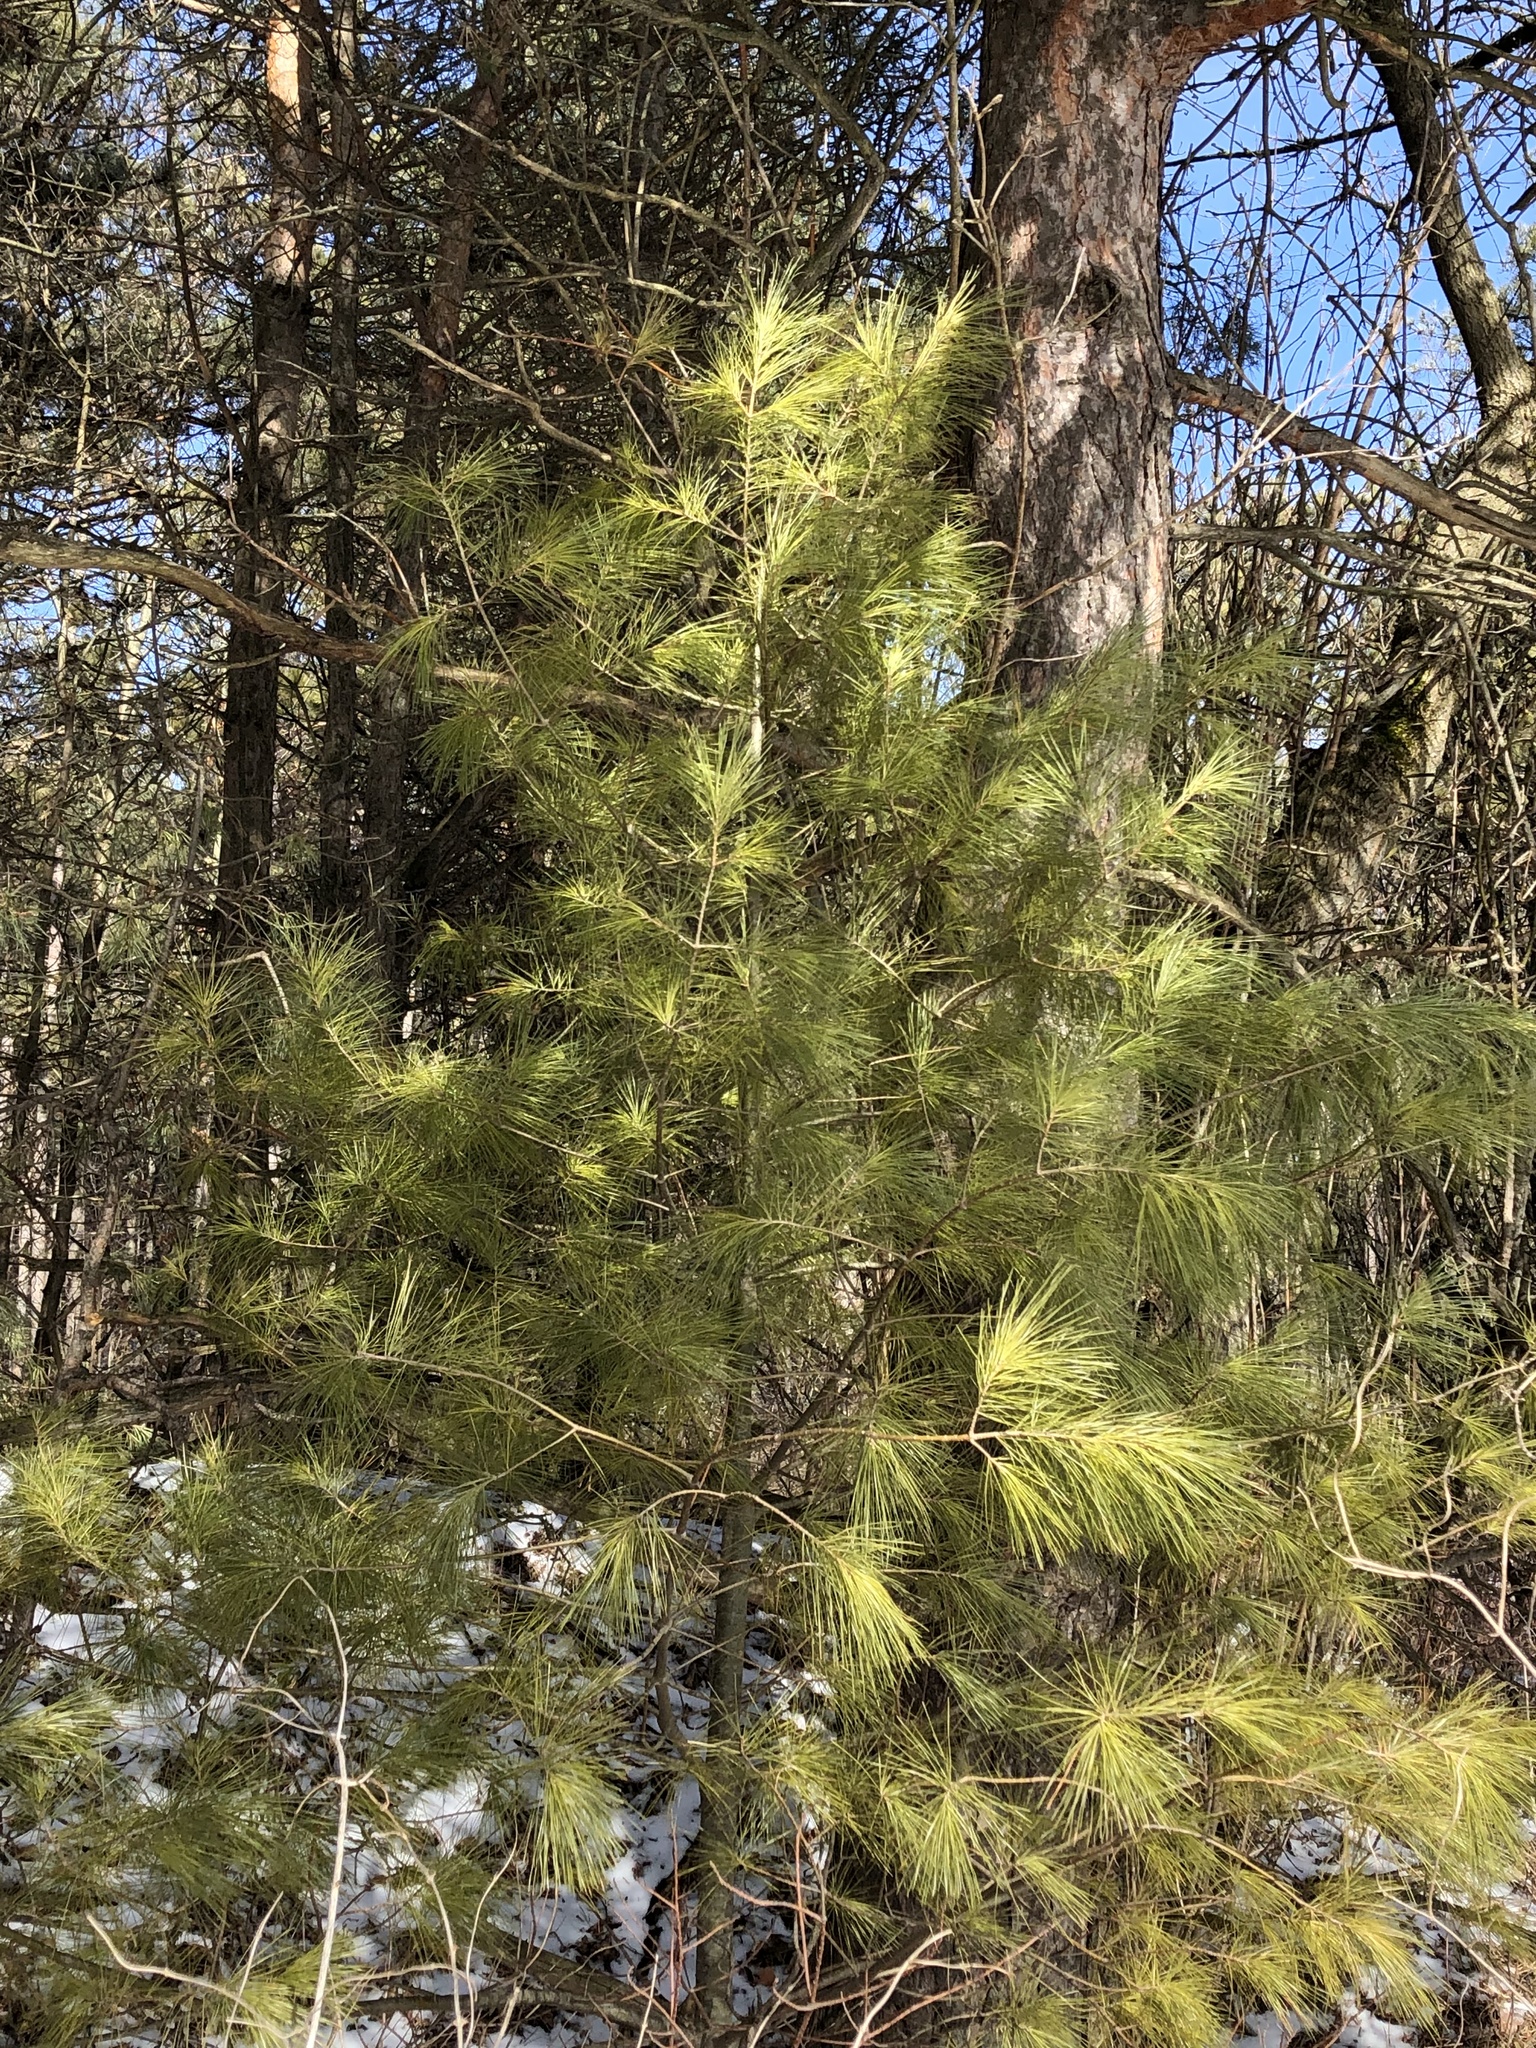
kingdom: Plantae
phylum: Tracheophyta
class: Pinopsida
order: Pinales
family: Pinaceae
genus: Pinus
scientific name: Pinus strobus
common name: Weymouth pine
